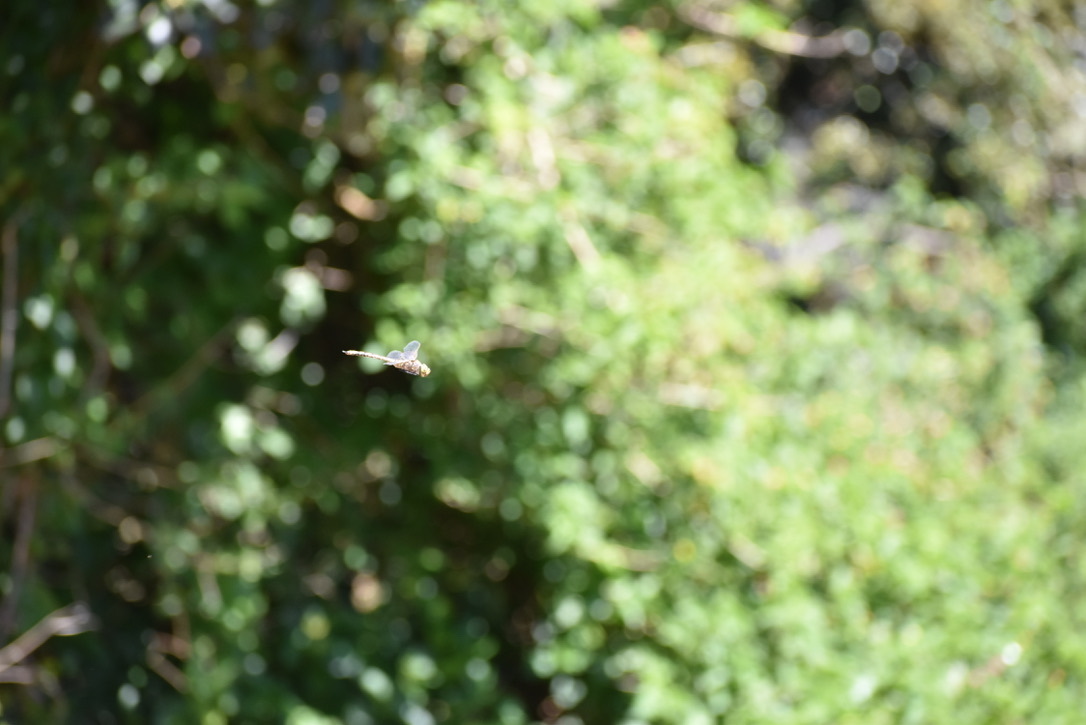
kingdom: Animalia
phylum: Arthropoda
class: Insecta
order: Odonata
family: Aeshnidae
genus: Anax
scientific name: Anax papuensis
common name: Australian emperor
